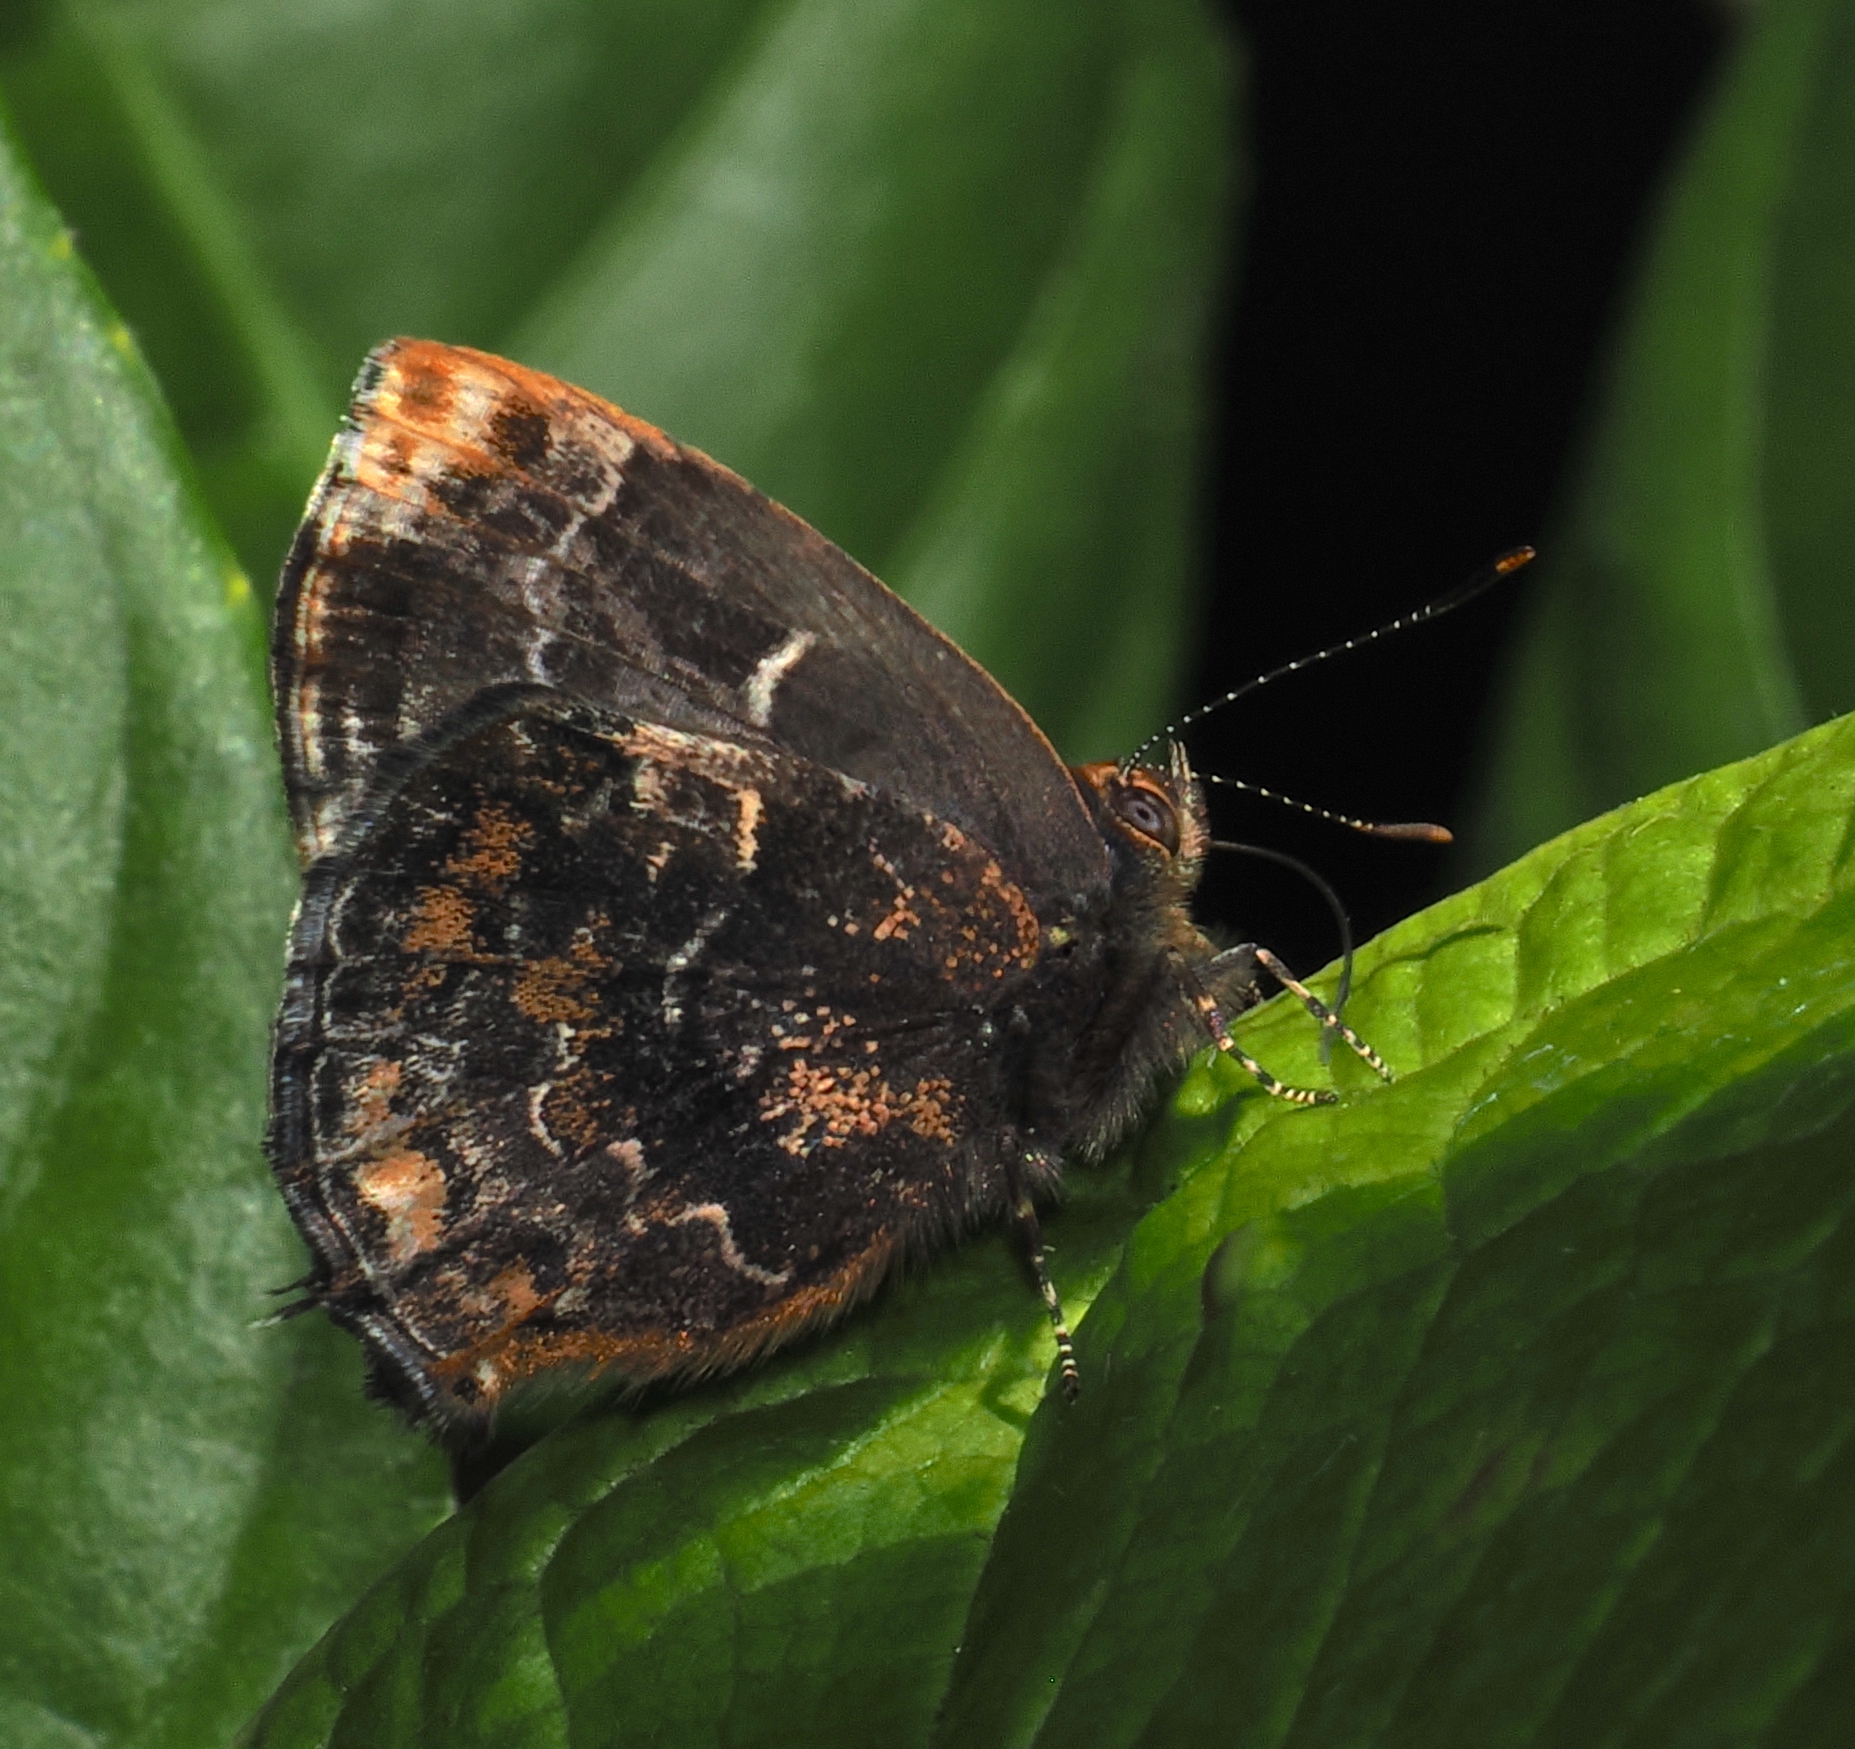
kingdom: Animalia
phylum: Arthropoda
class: Insecta
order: Lepidoptera
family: Lycaenidae
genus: Ocaria
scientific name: Ocaria ocrisia
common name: Black hairstreak
